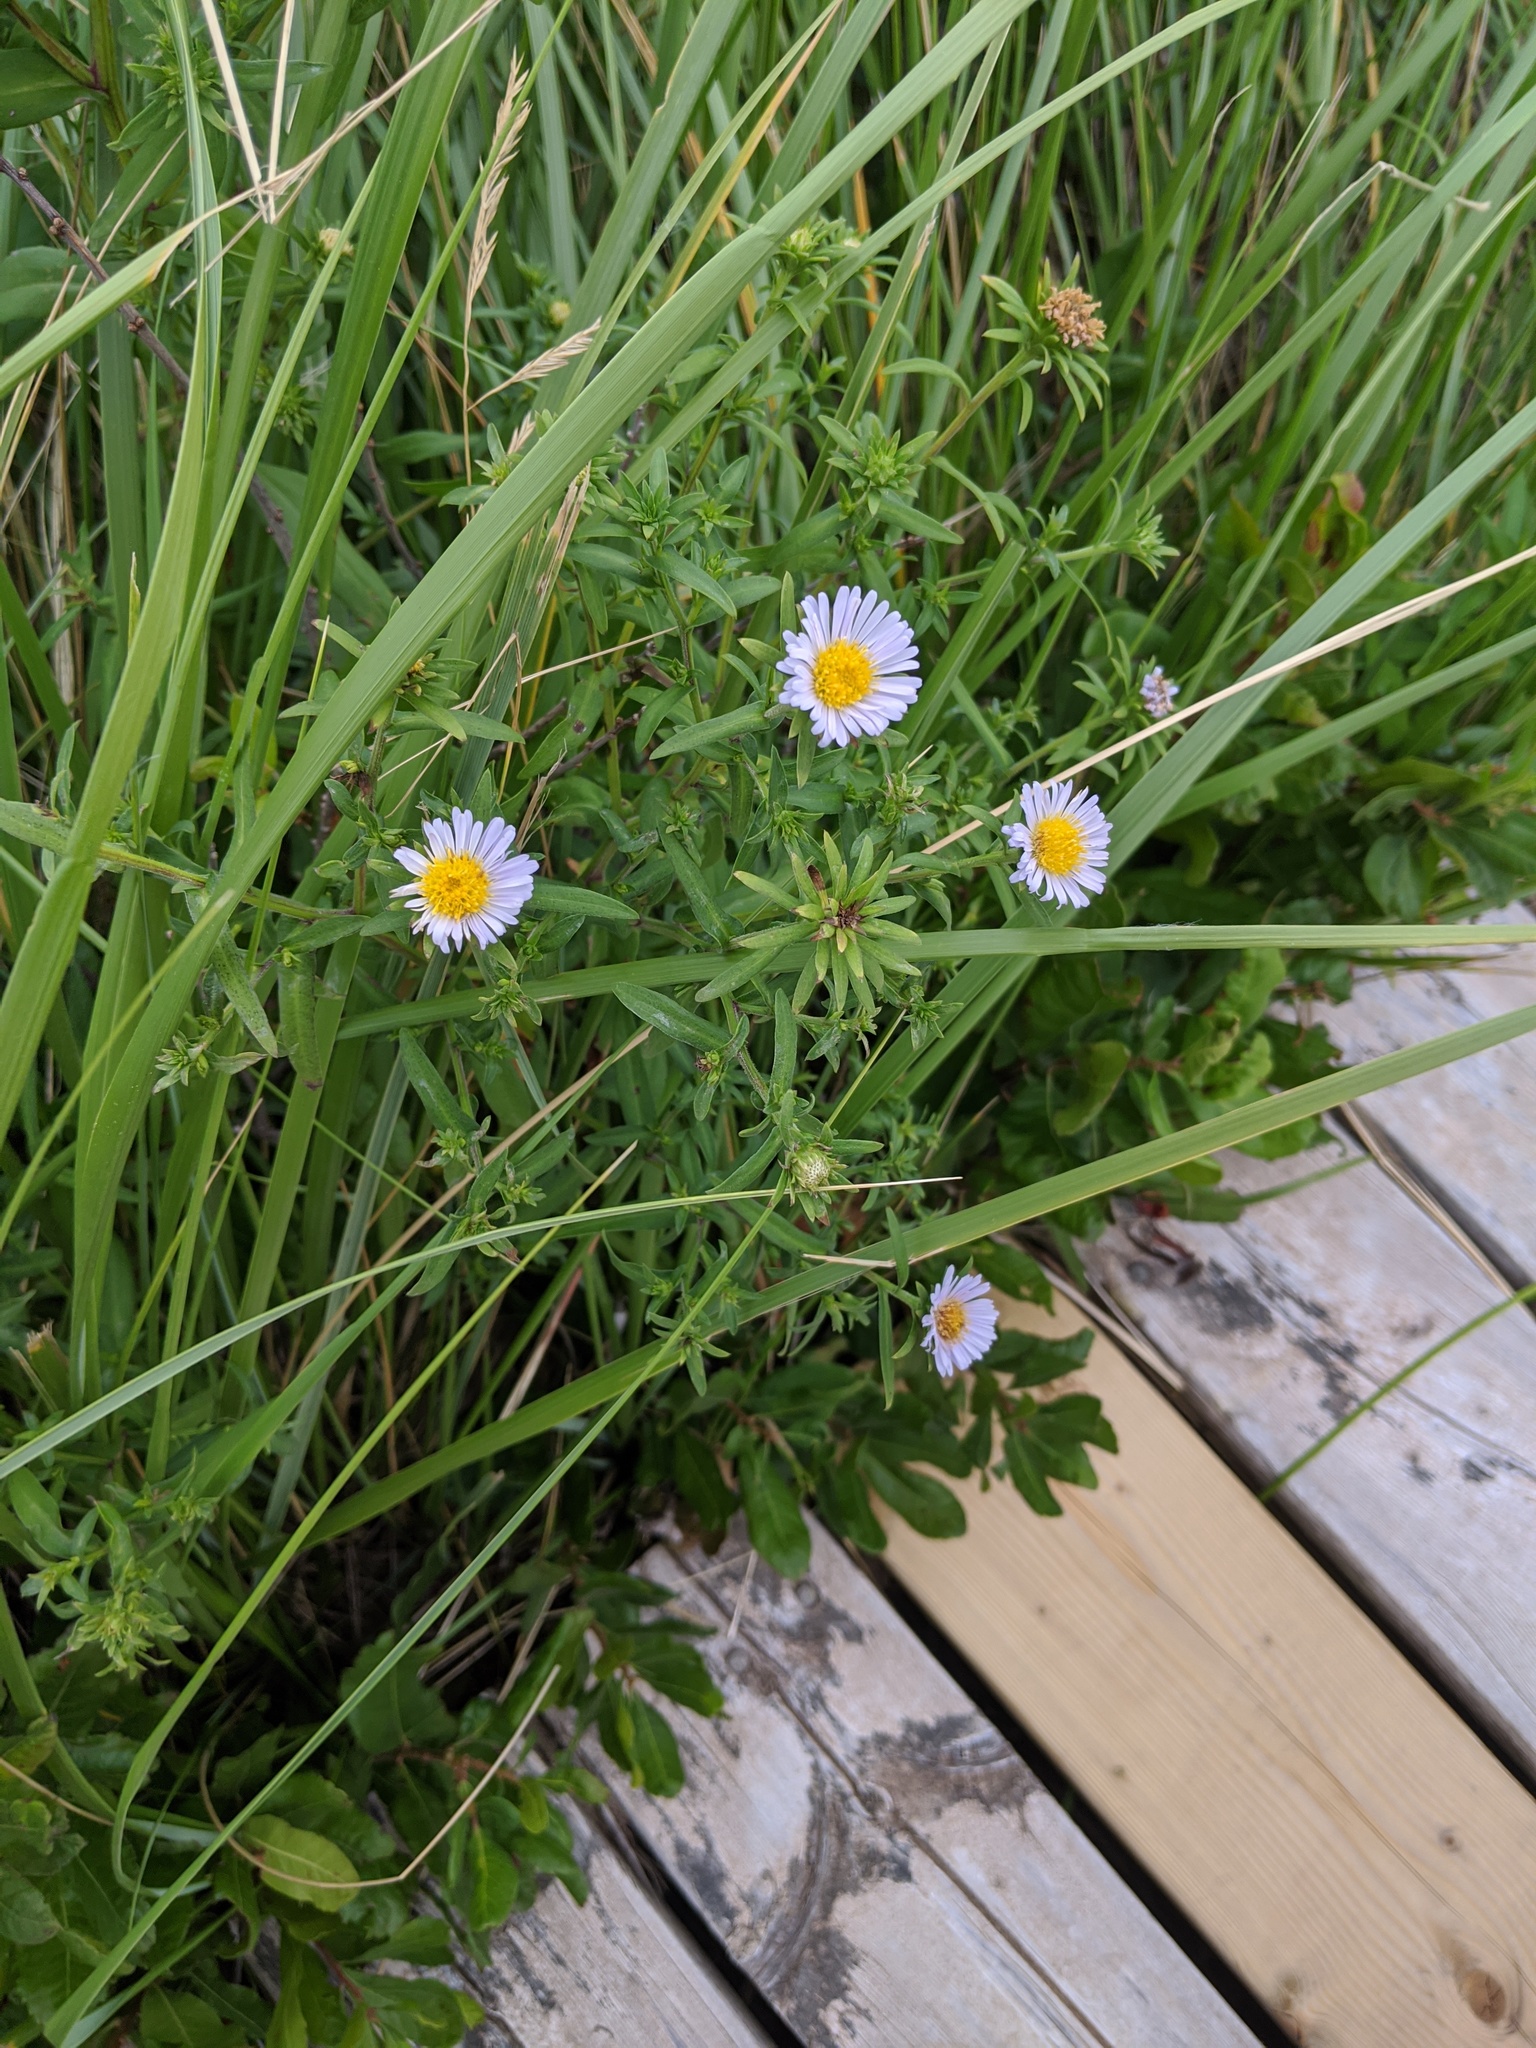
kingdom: Plantae
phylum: Tracheophyta
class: Magnoliopsida
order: Asterales
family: Asteraceae
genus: Symphyotrichum
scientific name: Symphyotrichum novi-belgii
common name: Michaelmas daisy
